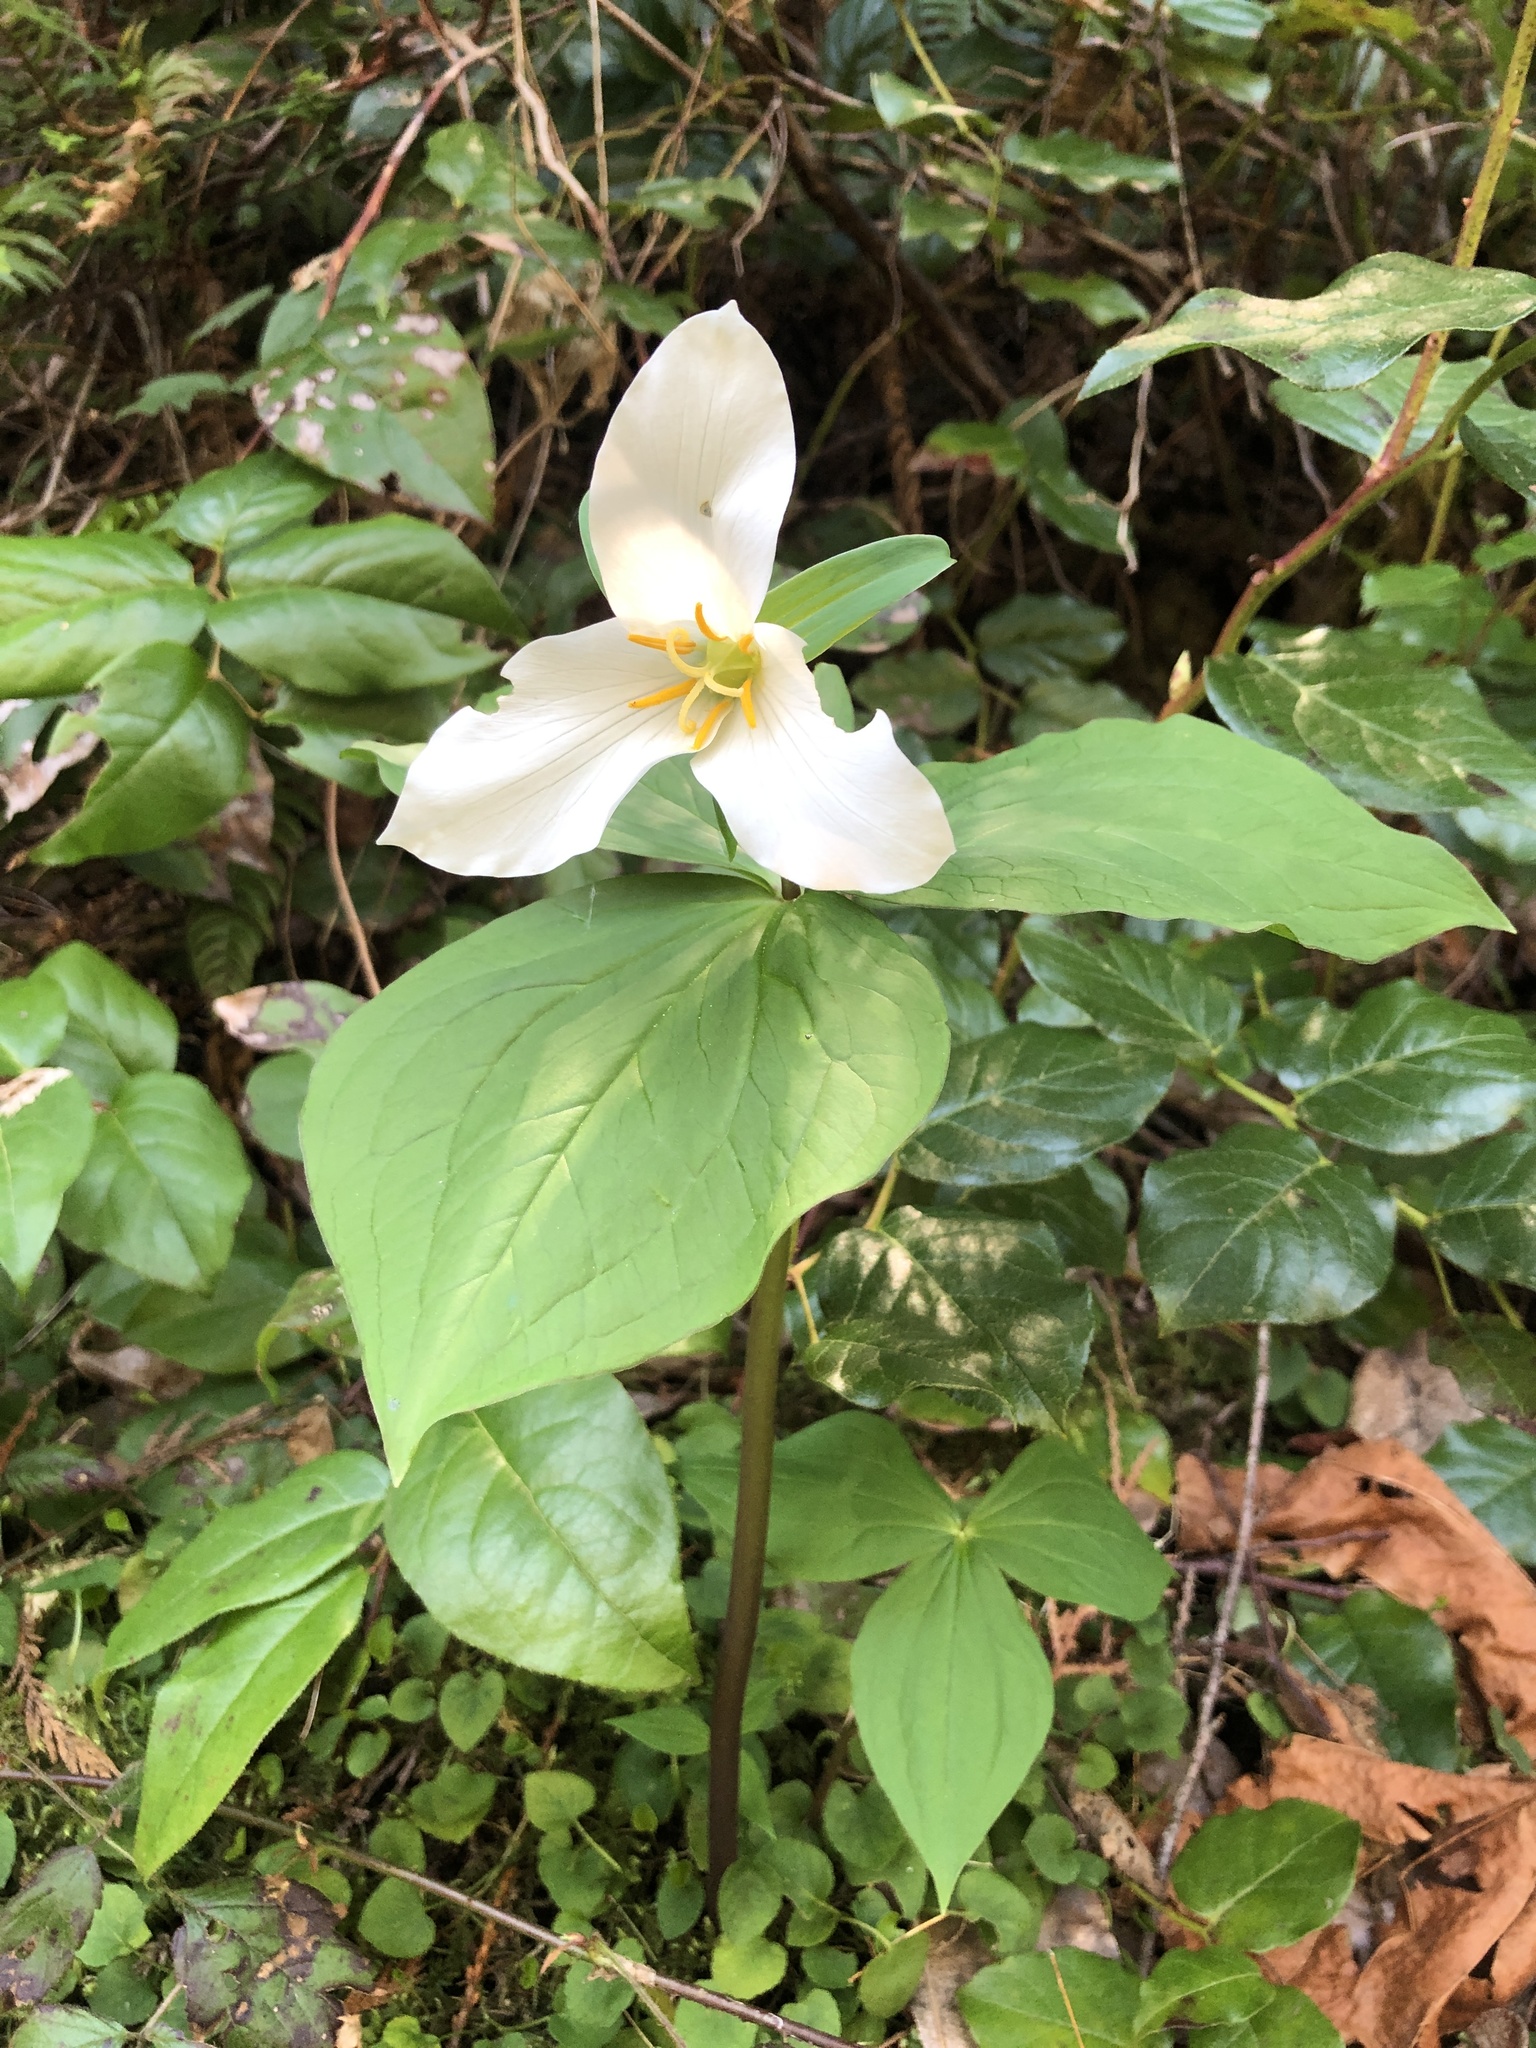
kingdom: Plantae
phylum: Tracheophyta
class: Liliopsida
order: Liliales
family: Melanthiaceae
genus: Trillium
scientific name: Trillium ovatum
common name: Pacific trillium
